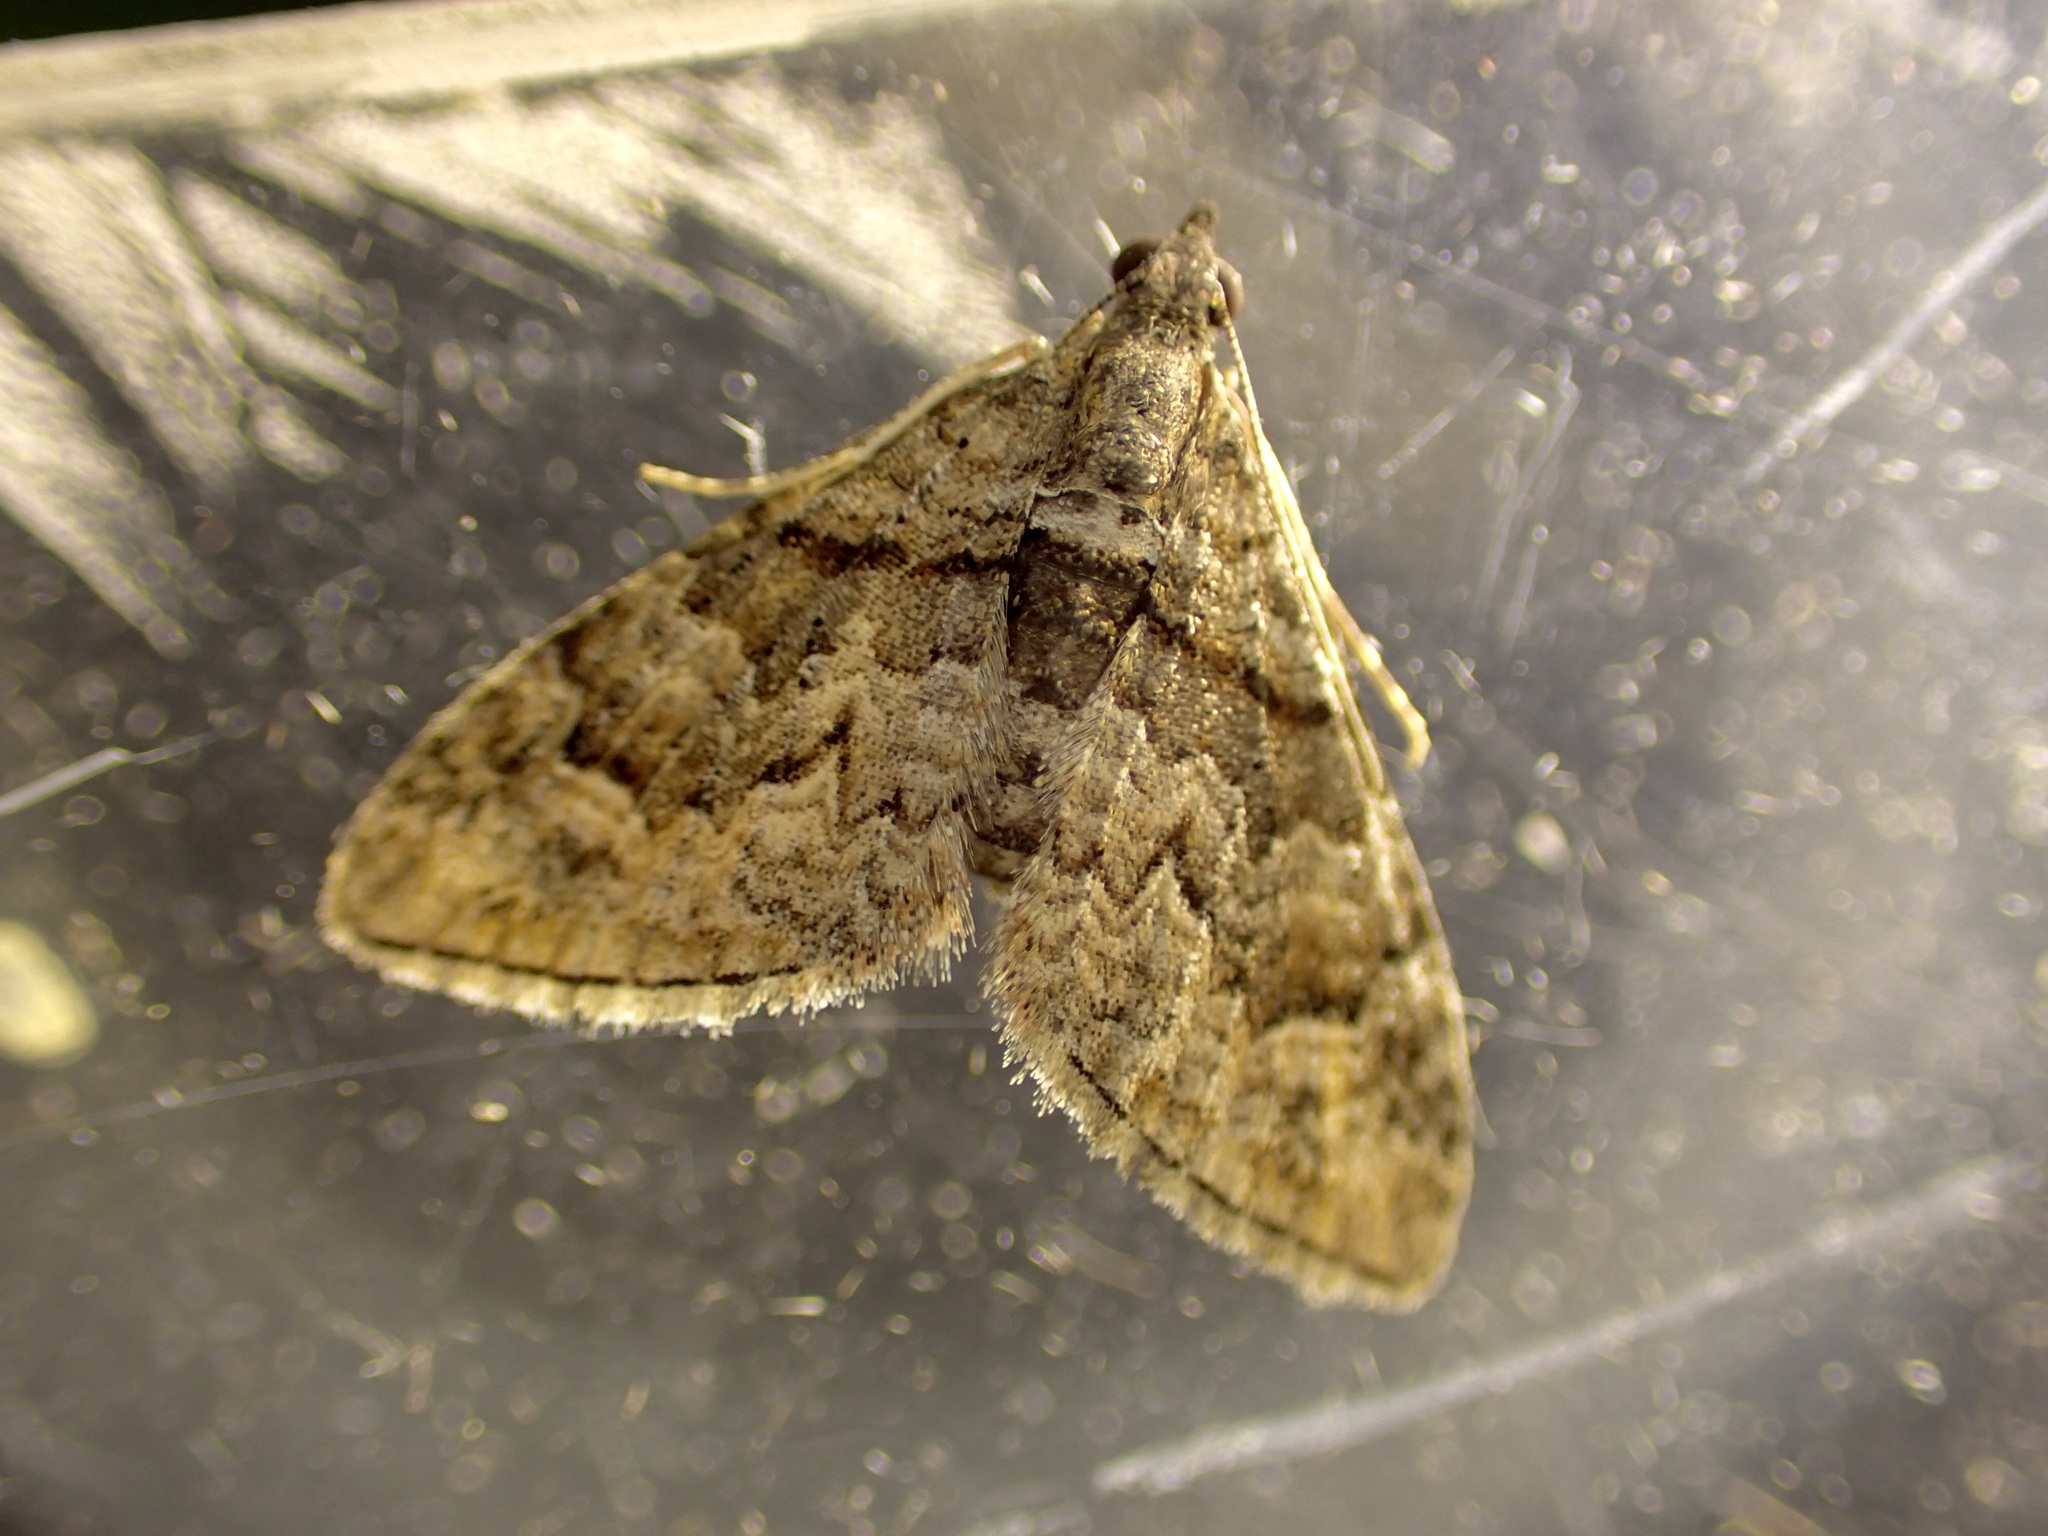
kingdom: Animalia
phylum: Arthropoda
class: Insecta
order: Lepidoptera
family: Geometridae
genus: Phrissogonus
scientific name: Phrissogonus laticostata
